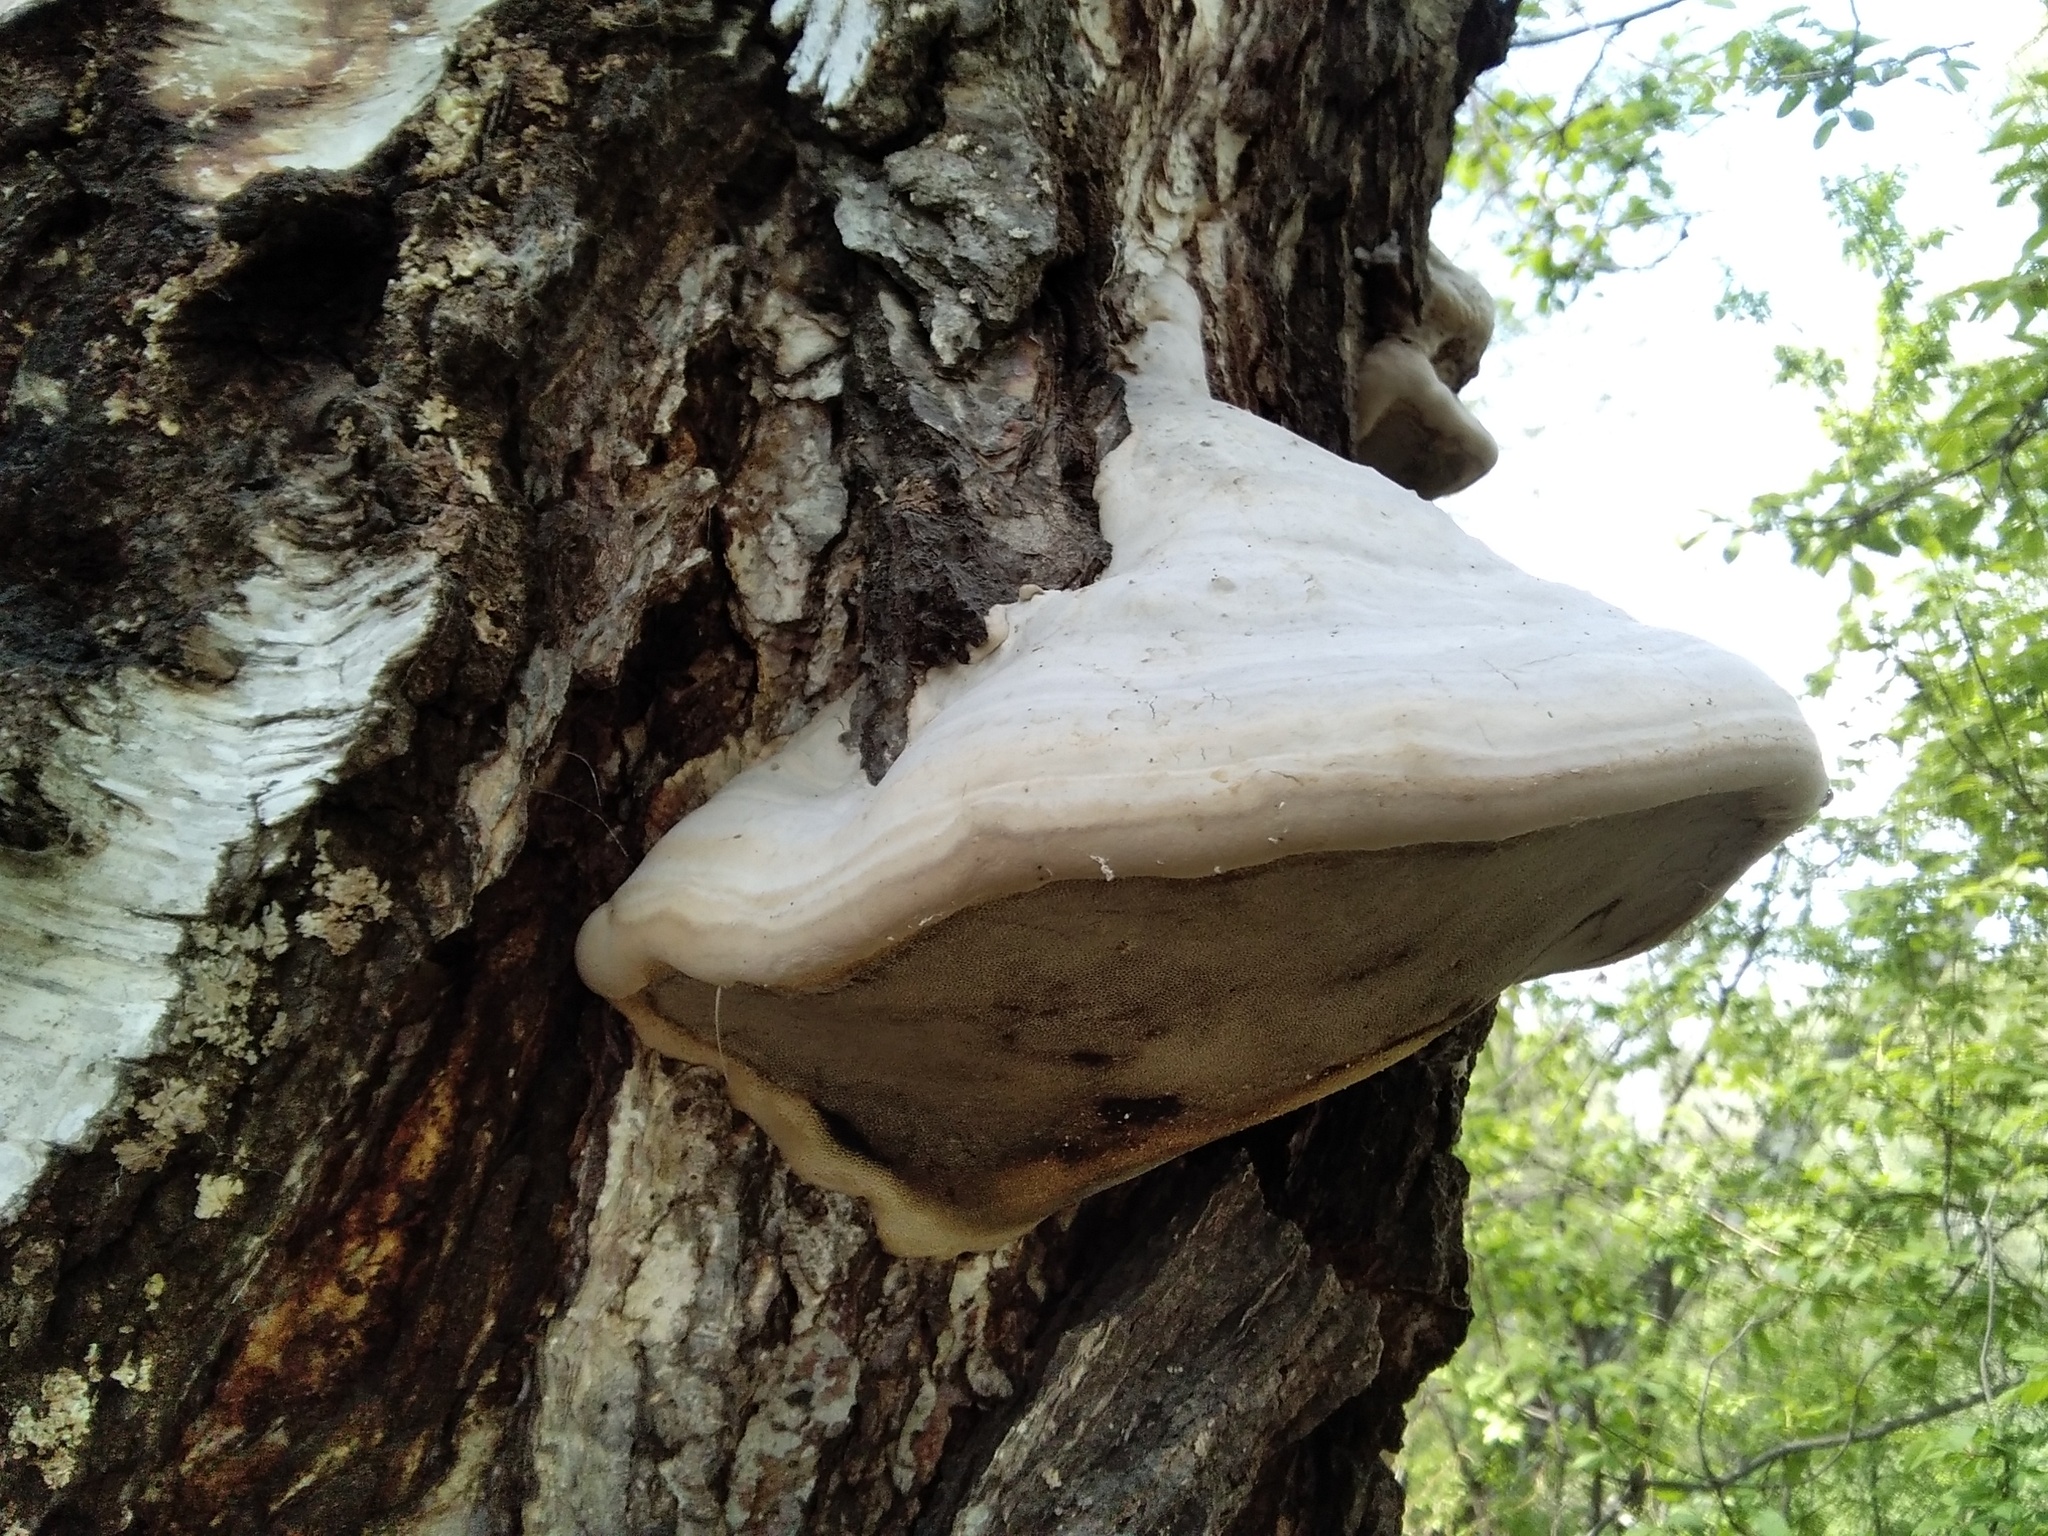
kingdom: Fungi
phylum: Basidiomycota
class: Agaricomycetes
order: Polyporales
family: Polyporaceae
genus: Fomes
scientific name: Fomes fomentarius
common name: Hoof fungus
